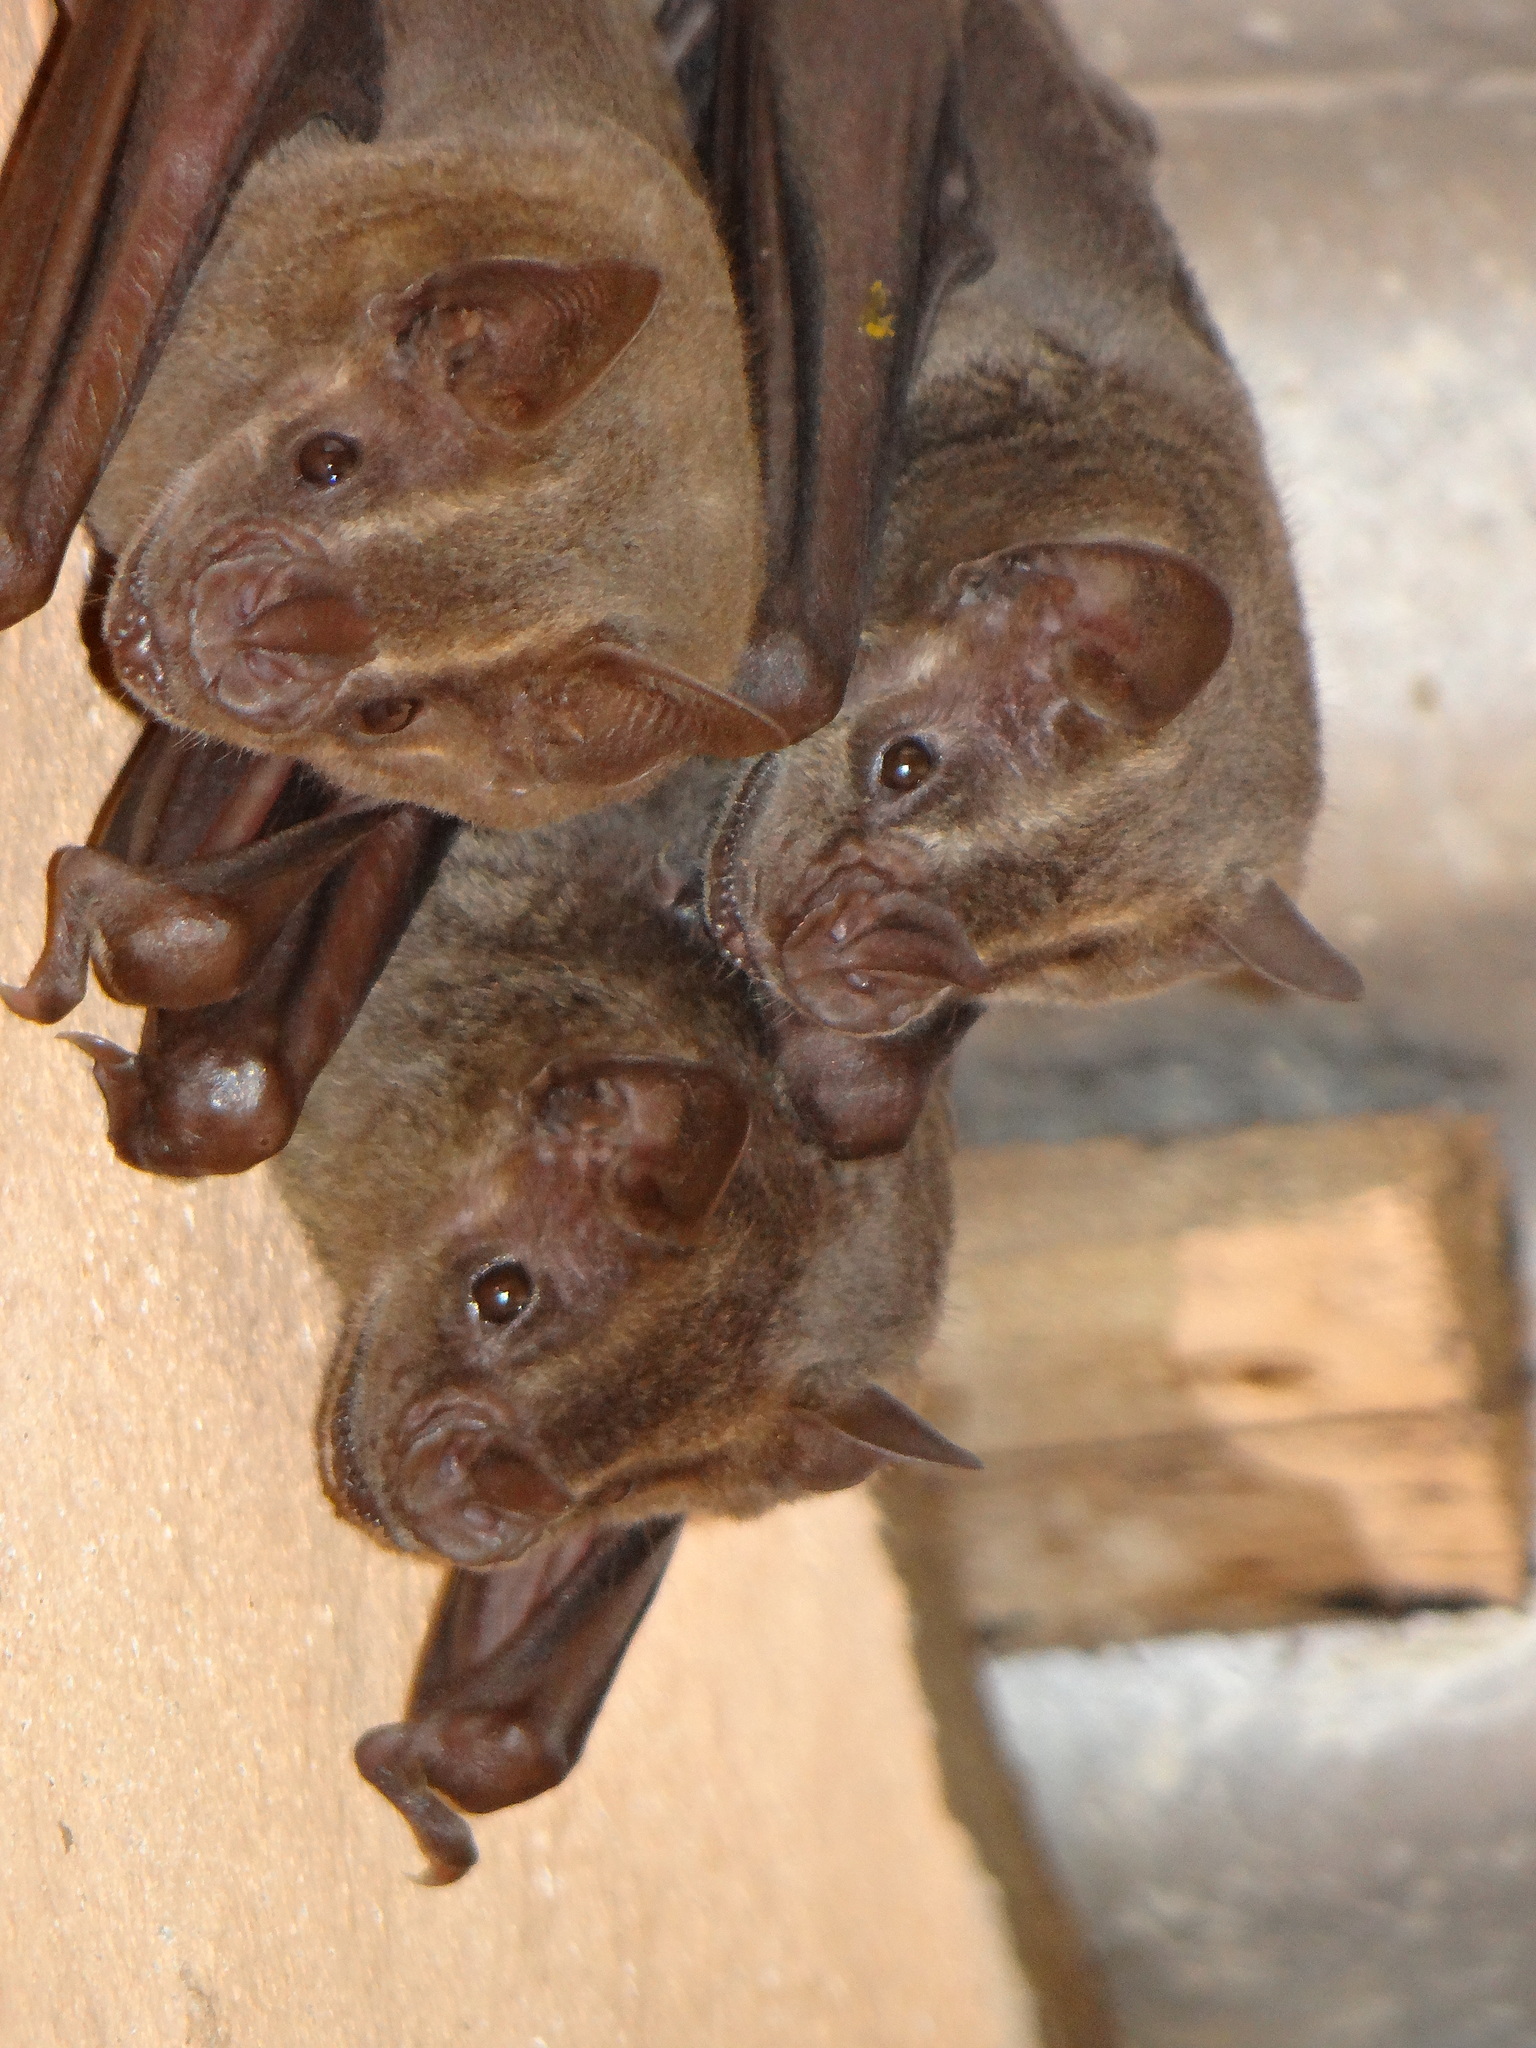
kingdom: Animalia
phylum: Chordata
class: Mammalia
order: Chiroptera
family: Phyllostomidae
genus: Artibeus
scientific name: Artibeus planirostris
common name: Flat-faced fruit-eating bat
